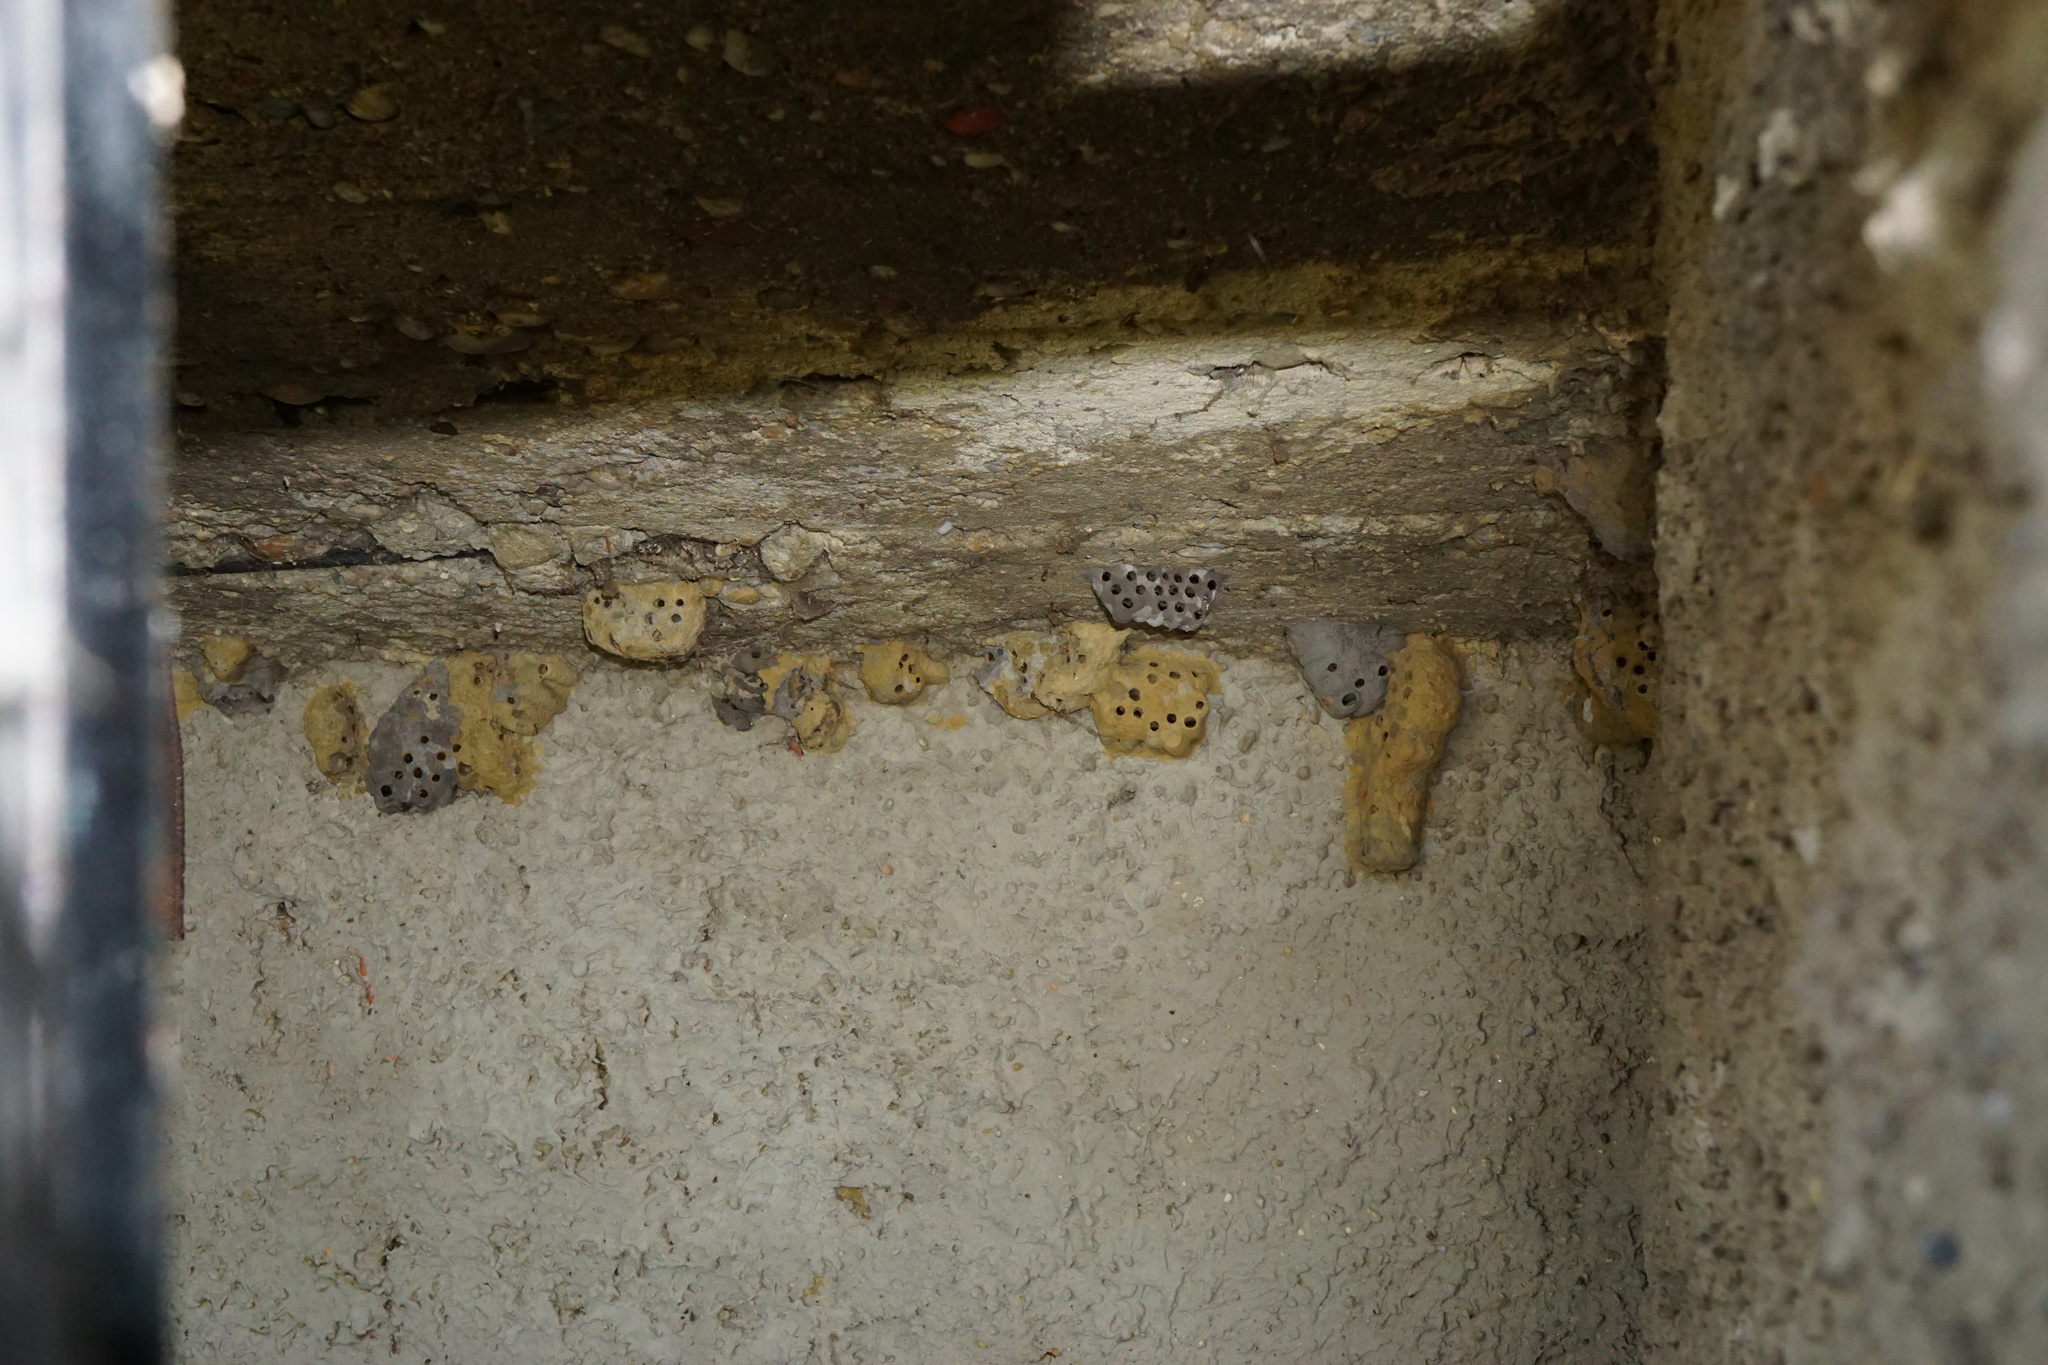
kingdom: Animalia
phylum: Arthropoda
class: Insecta
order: Hymenoptera
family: Sphecidae
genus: Sceliphron
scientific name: Sceliphron
